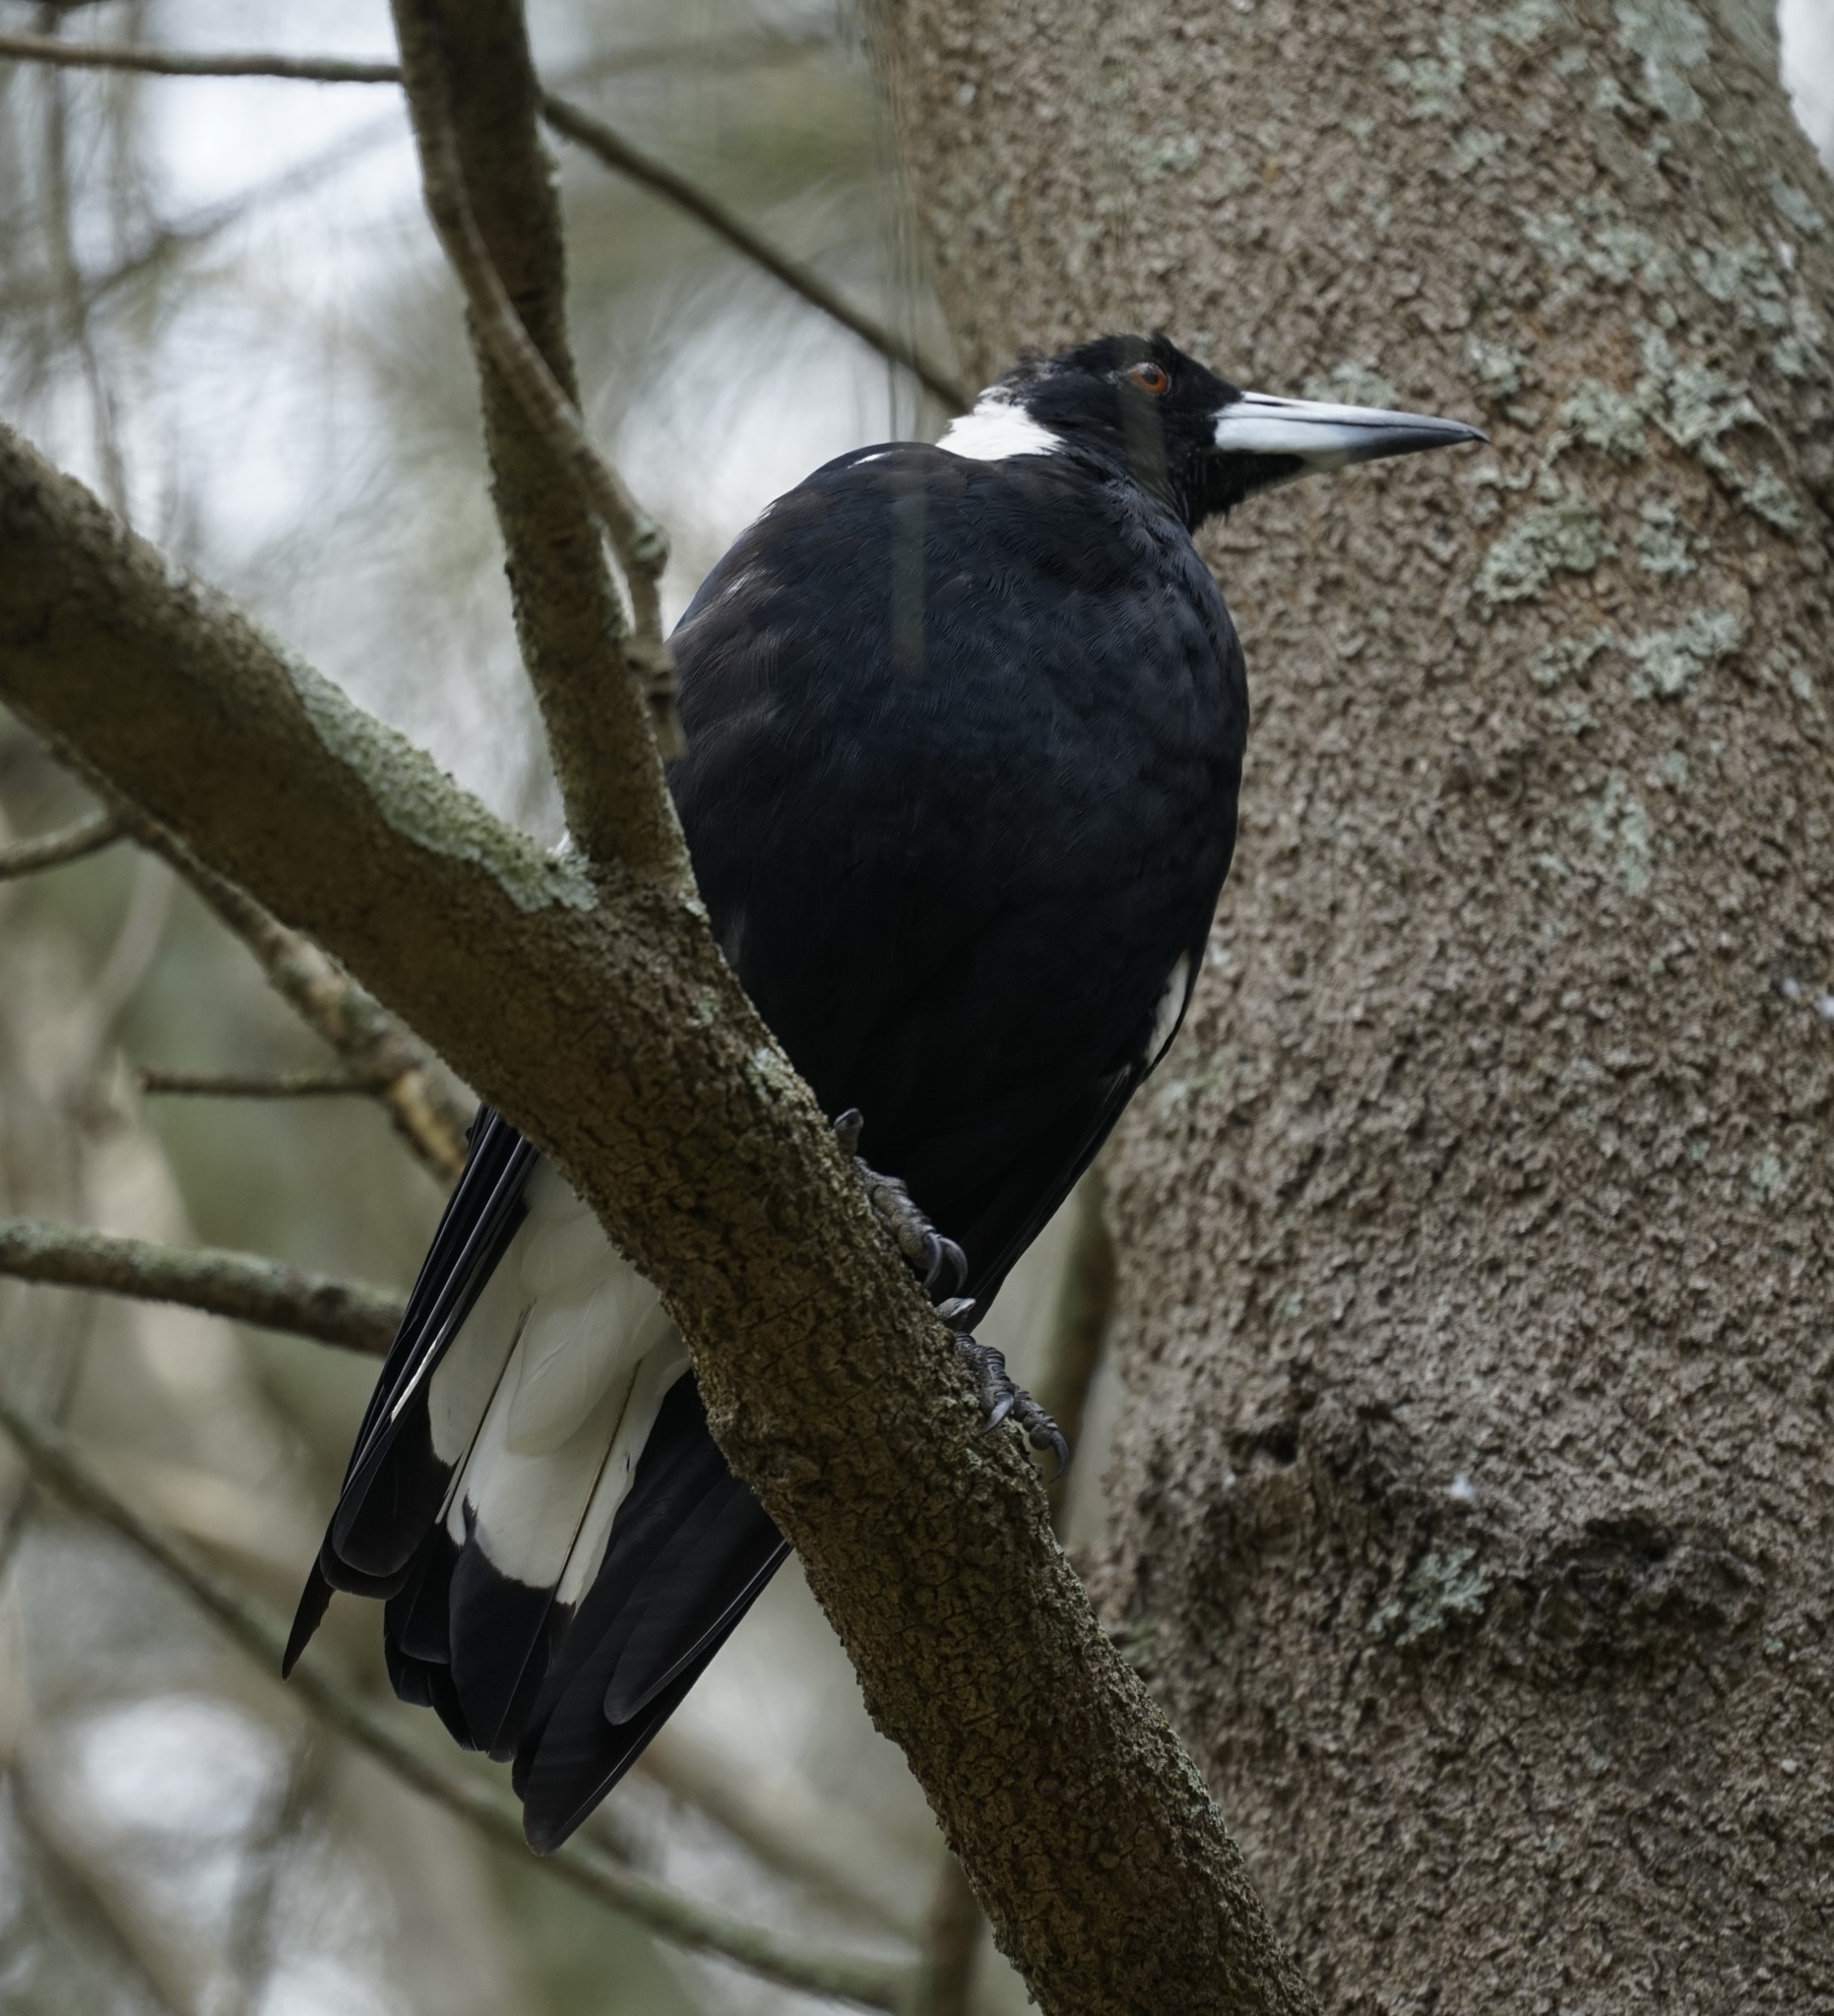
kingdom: Animalia
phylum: Chordata
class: Aves
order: Passeriformes
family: Cracticidae
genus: Gymnorhina
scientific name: Gymnorhina tibicen
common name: Australian magpie
